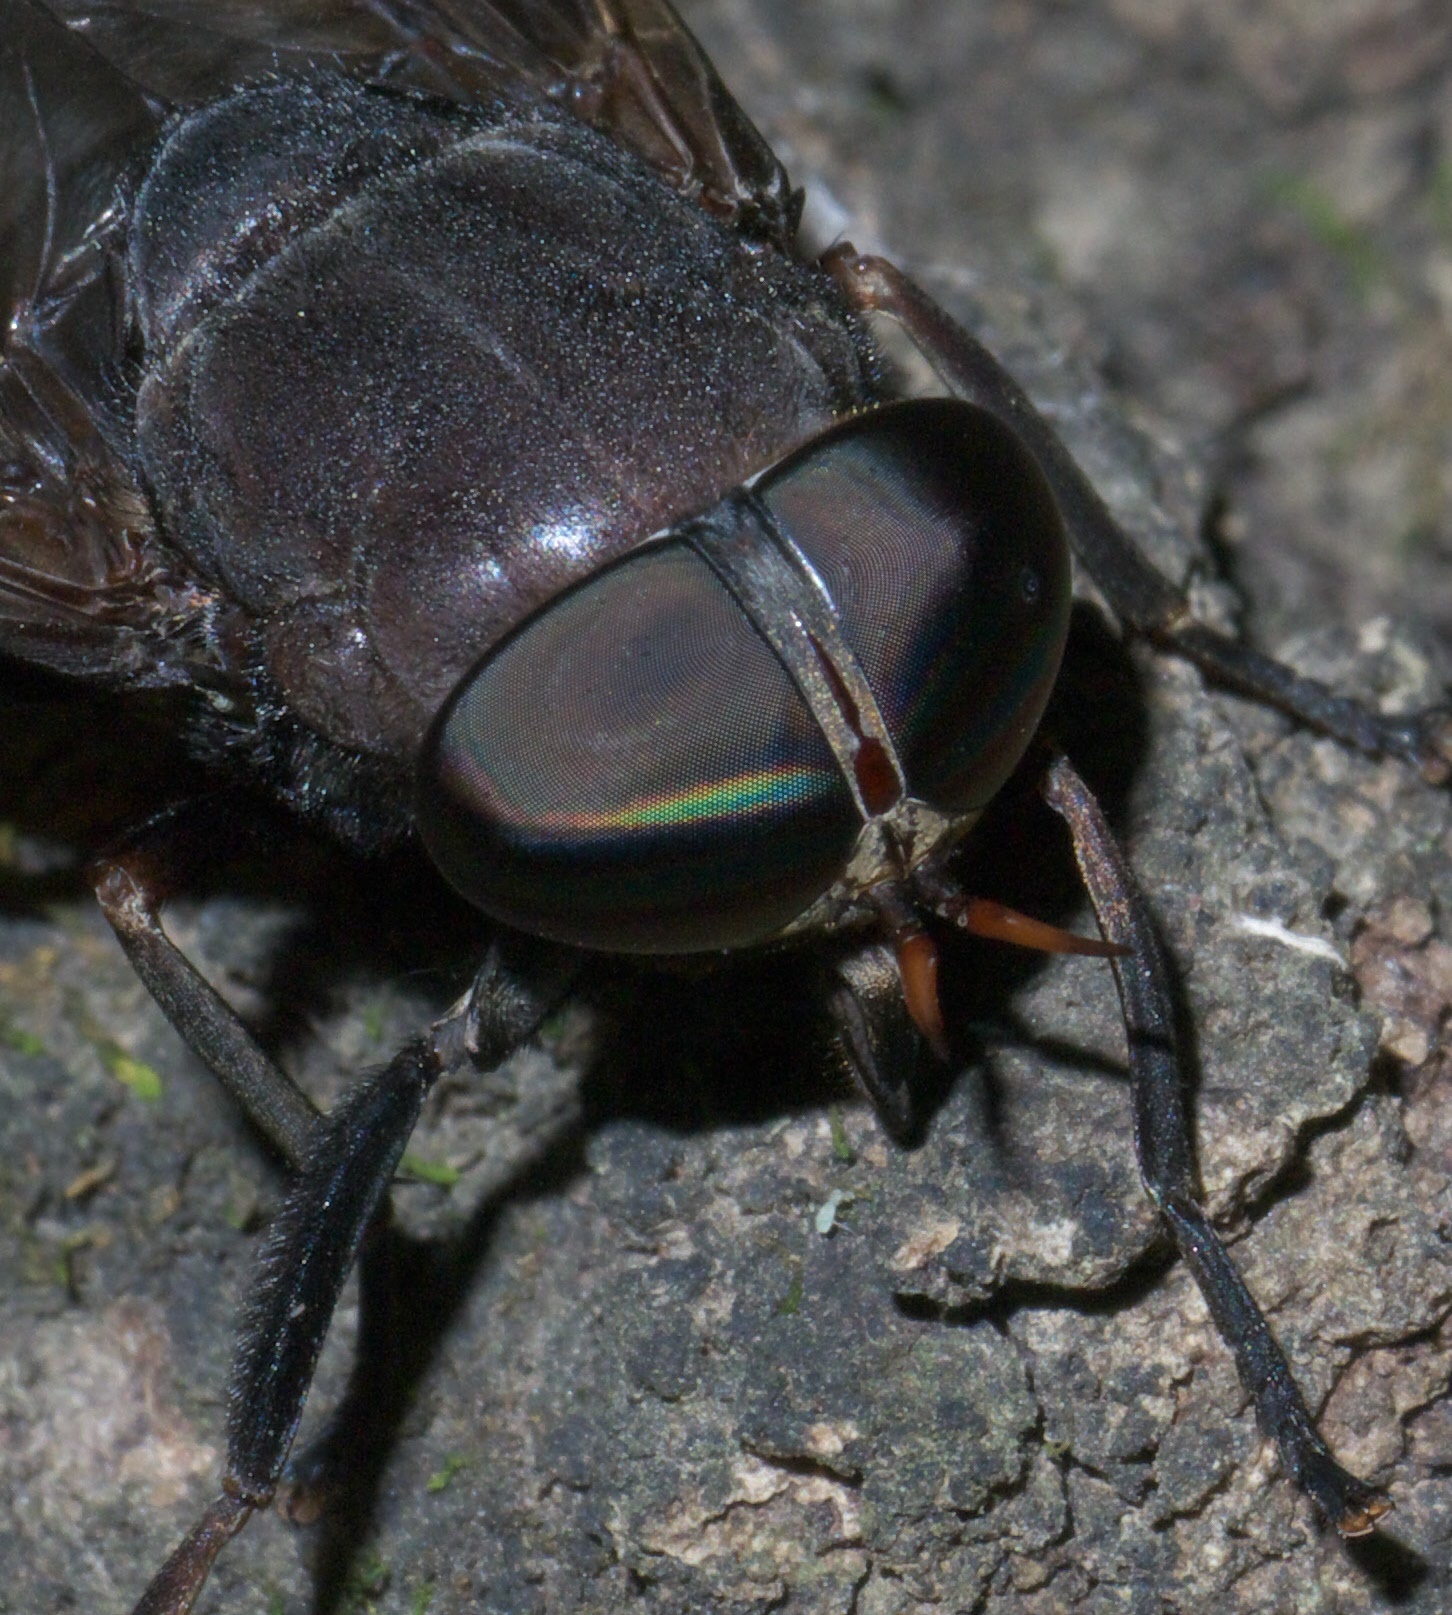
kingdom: Animalia
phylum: Arthropoda
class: Insecta
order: Diptera
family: Tabanidae
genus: Tabanus
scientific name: Tabanus proximus
